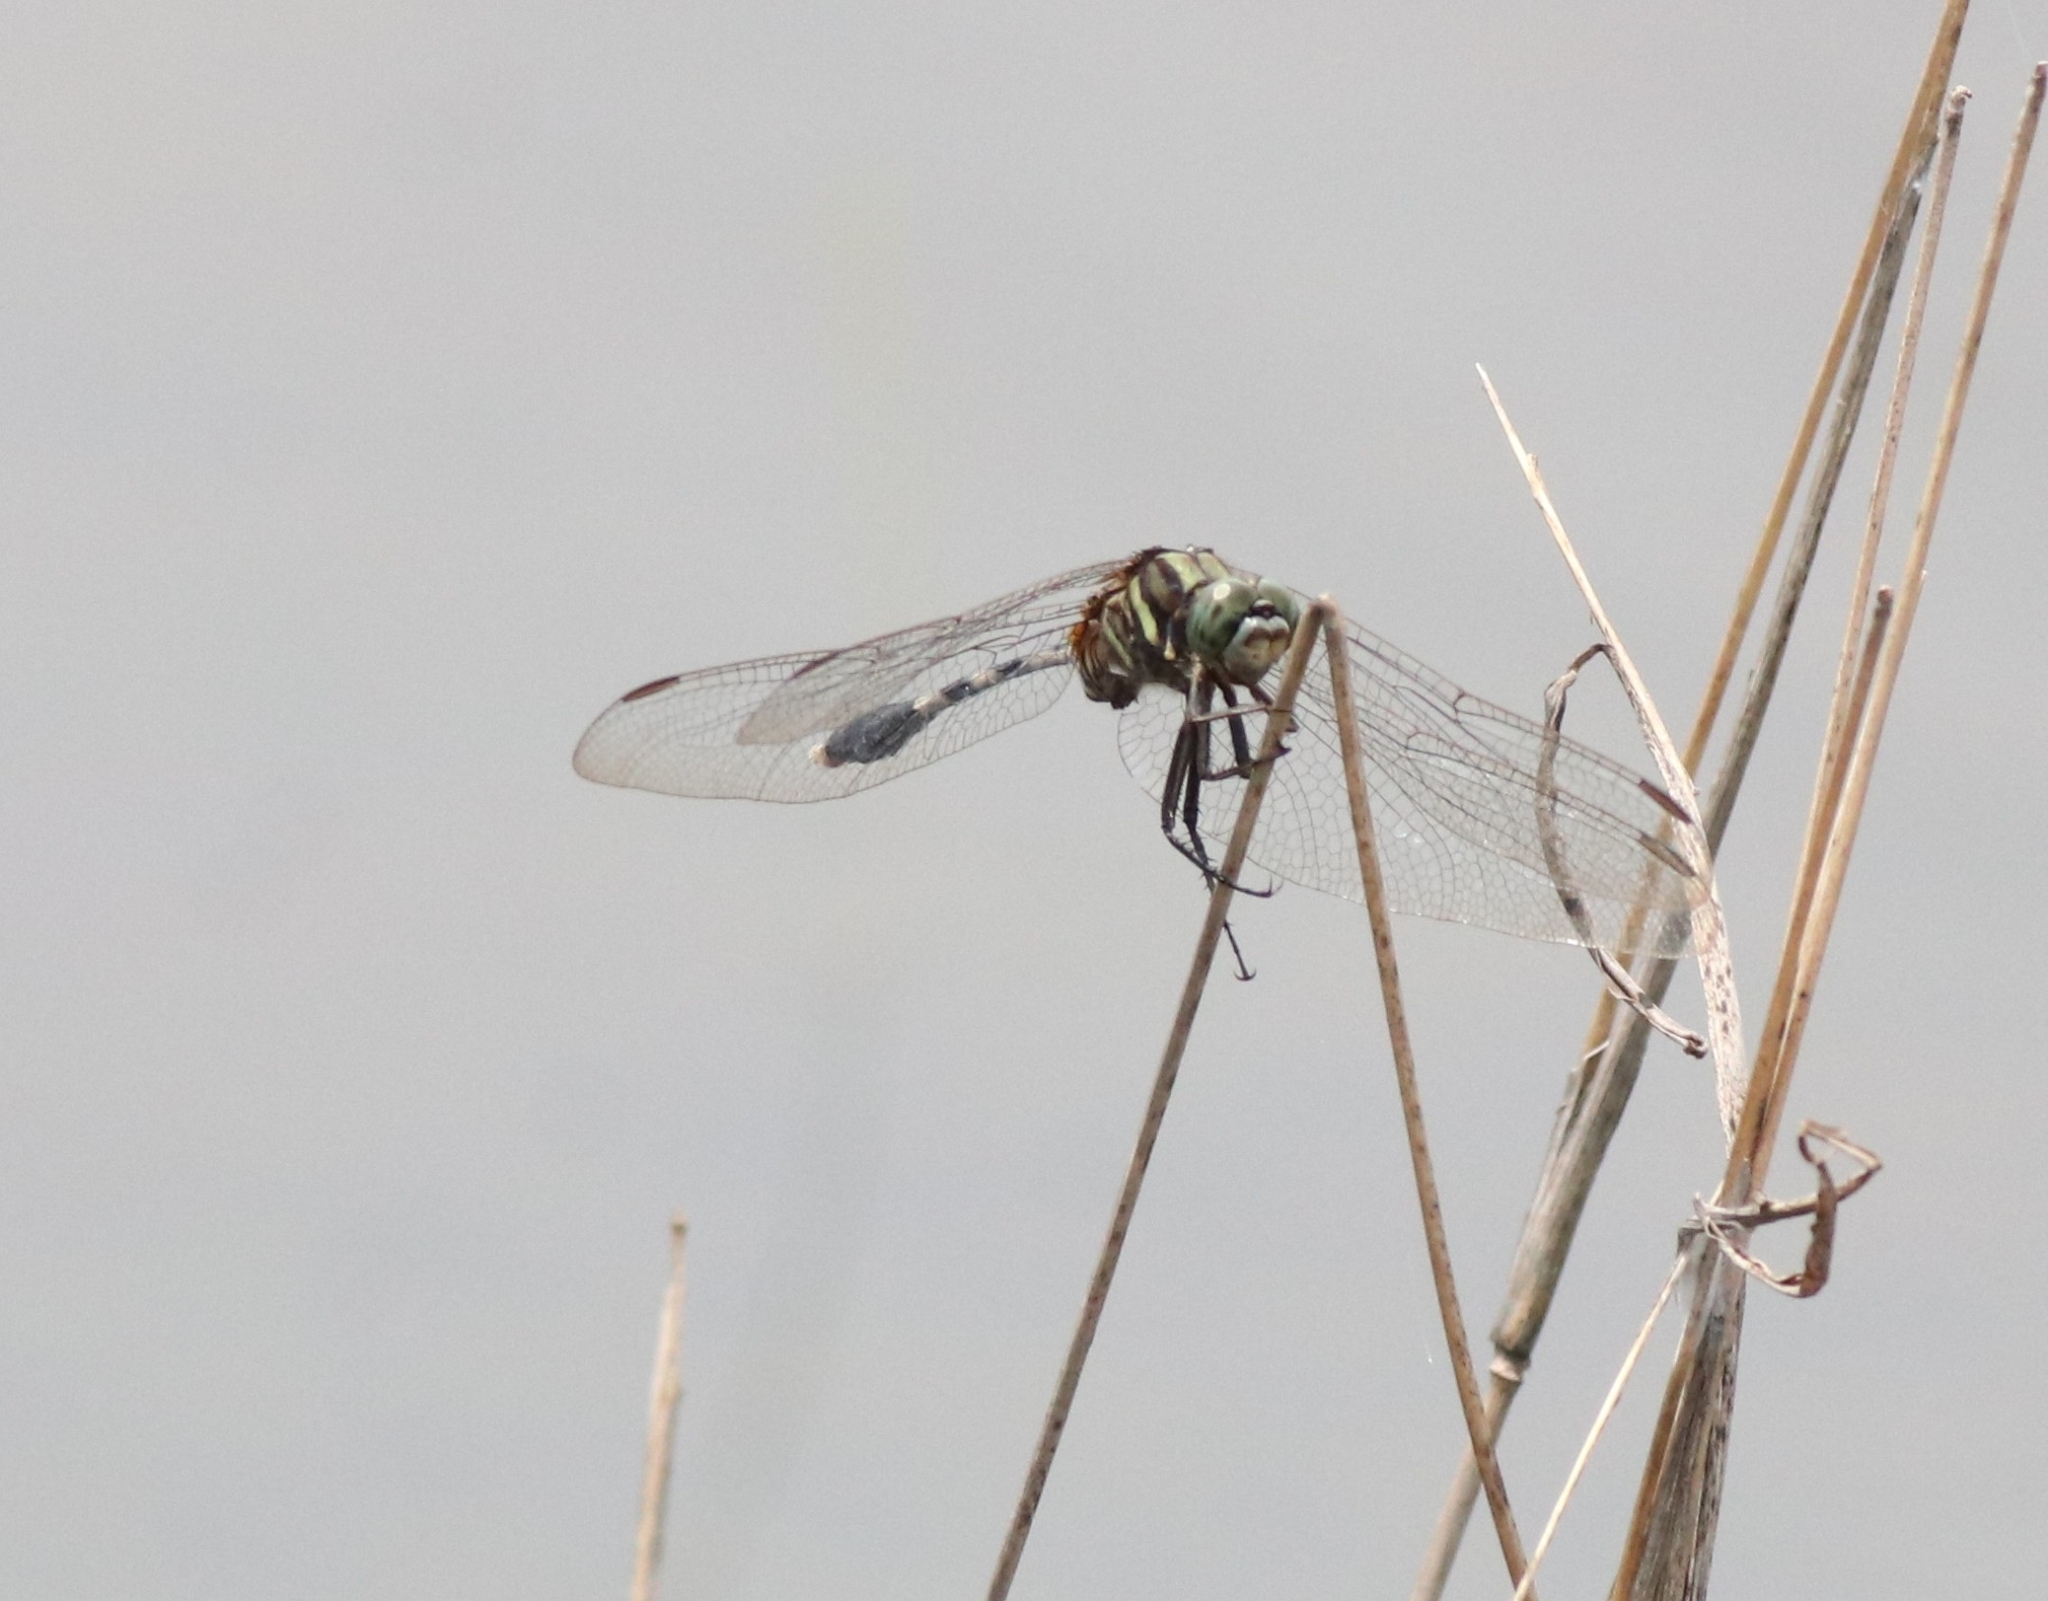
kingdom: Animalia
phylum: Arthropoda
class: Insecta
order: Odonata
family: Libellulidae
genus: Orthetrum
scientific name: Orthetrum sabina
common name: Slender skimmer
